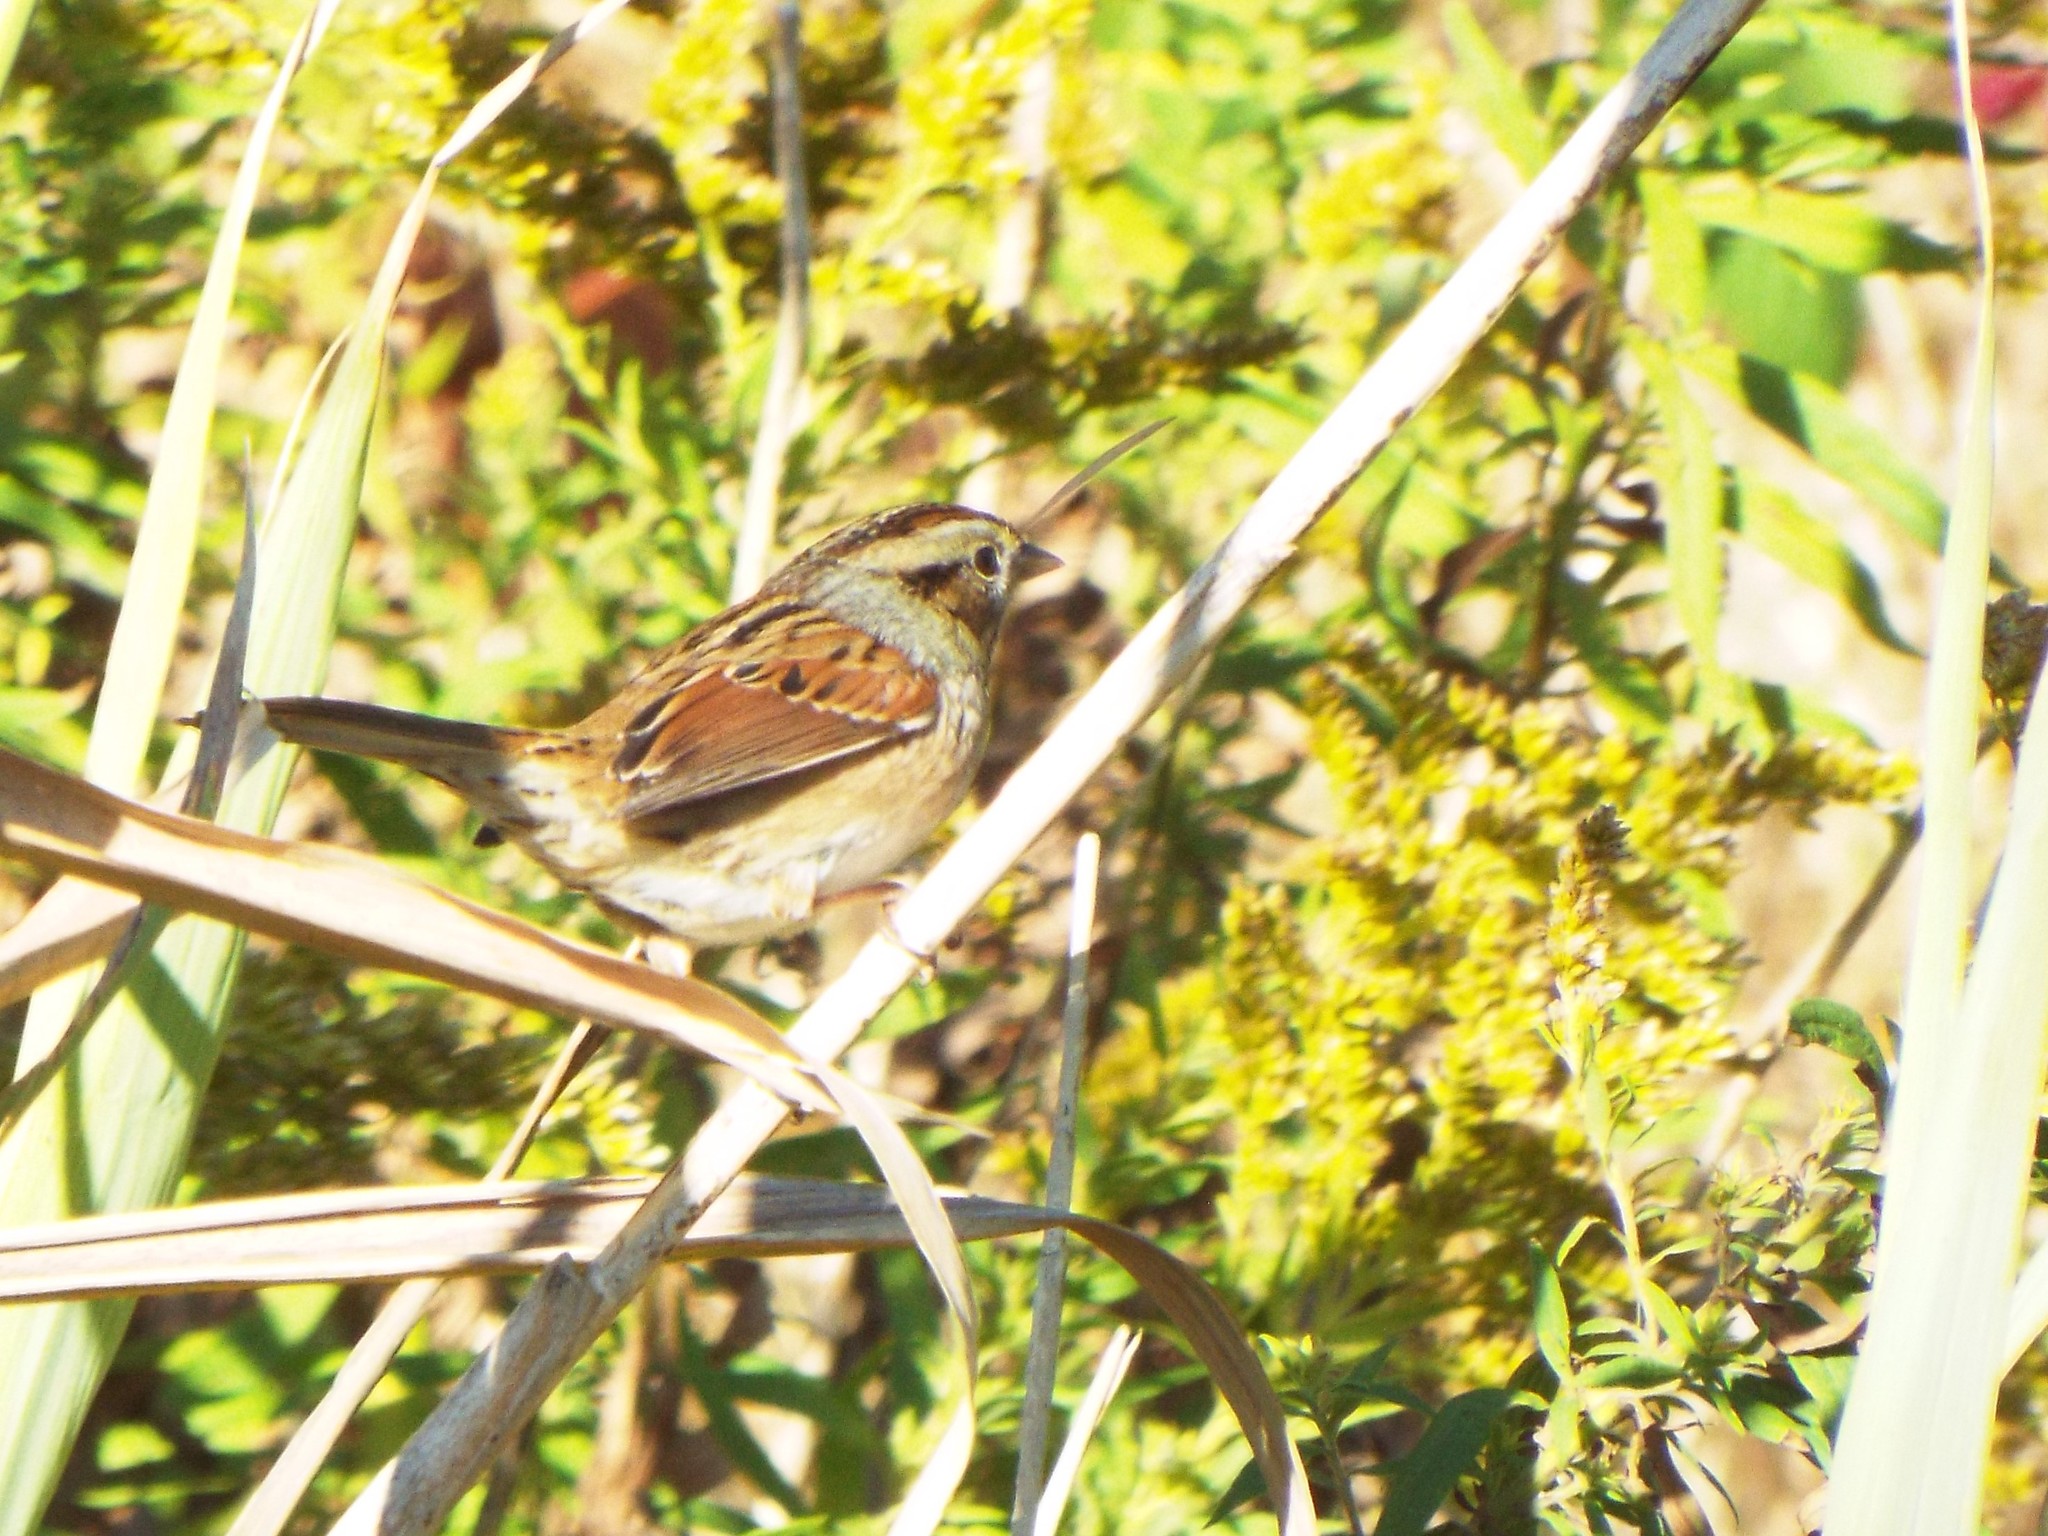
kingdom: Animalia
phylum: Chordata
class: Aves
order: Passeriformes
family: Passerellidae
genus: Melospiza
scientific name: Melospiza georgiana
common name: Swamp sparrow
